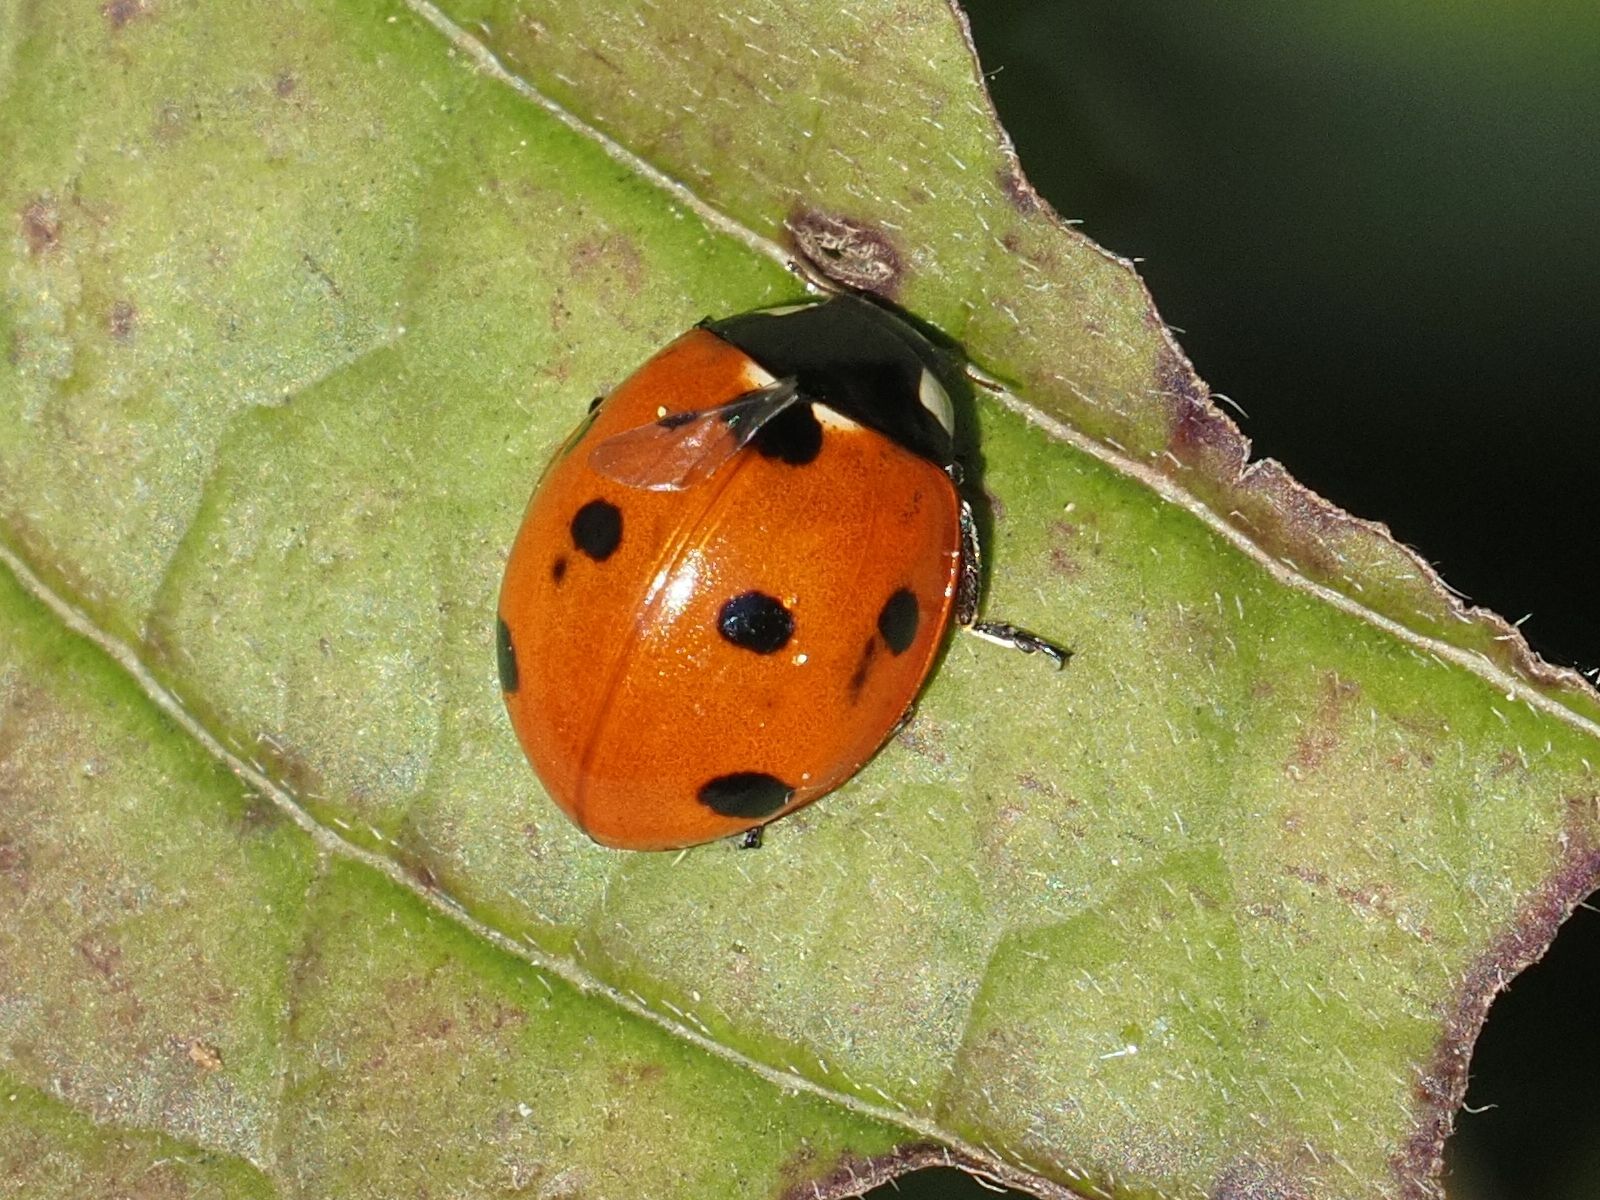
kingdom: Animalia
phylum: Arthropoda
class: Insecta
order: Coleoptera
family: Coccinellidae
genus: Coccinella
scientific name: Coccinella septempunctata
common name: Sevenspotted lady beetle
